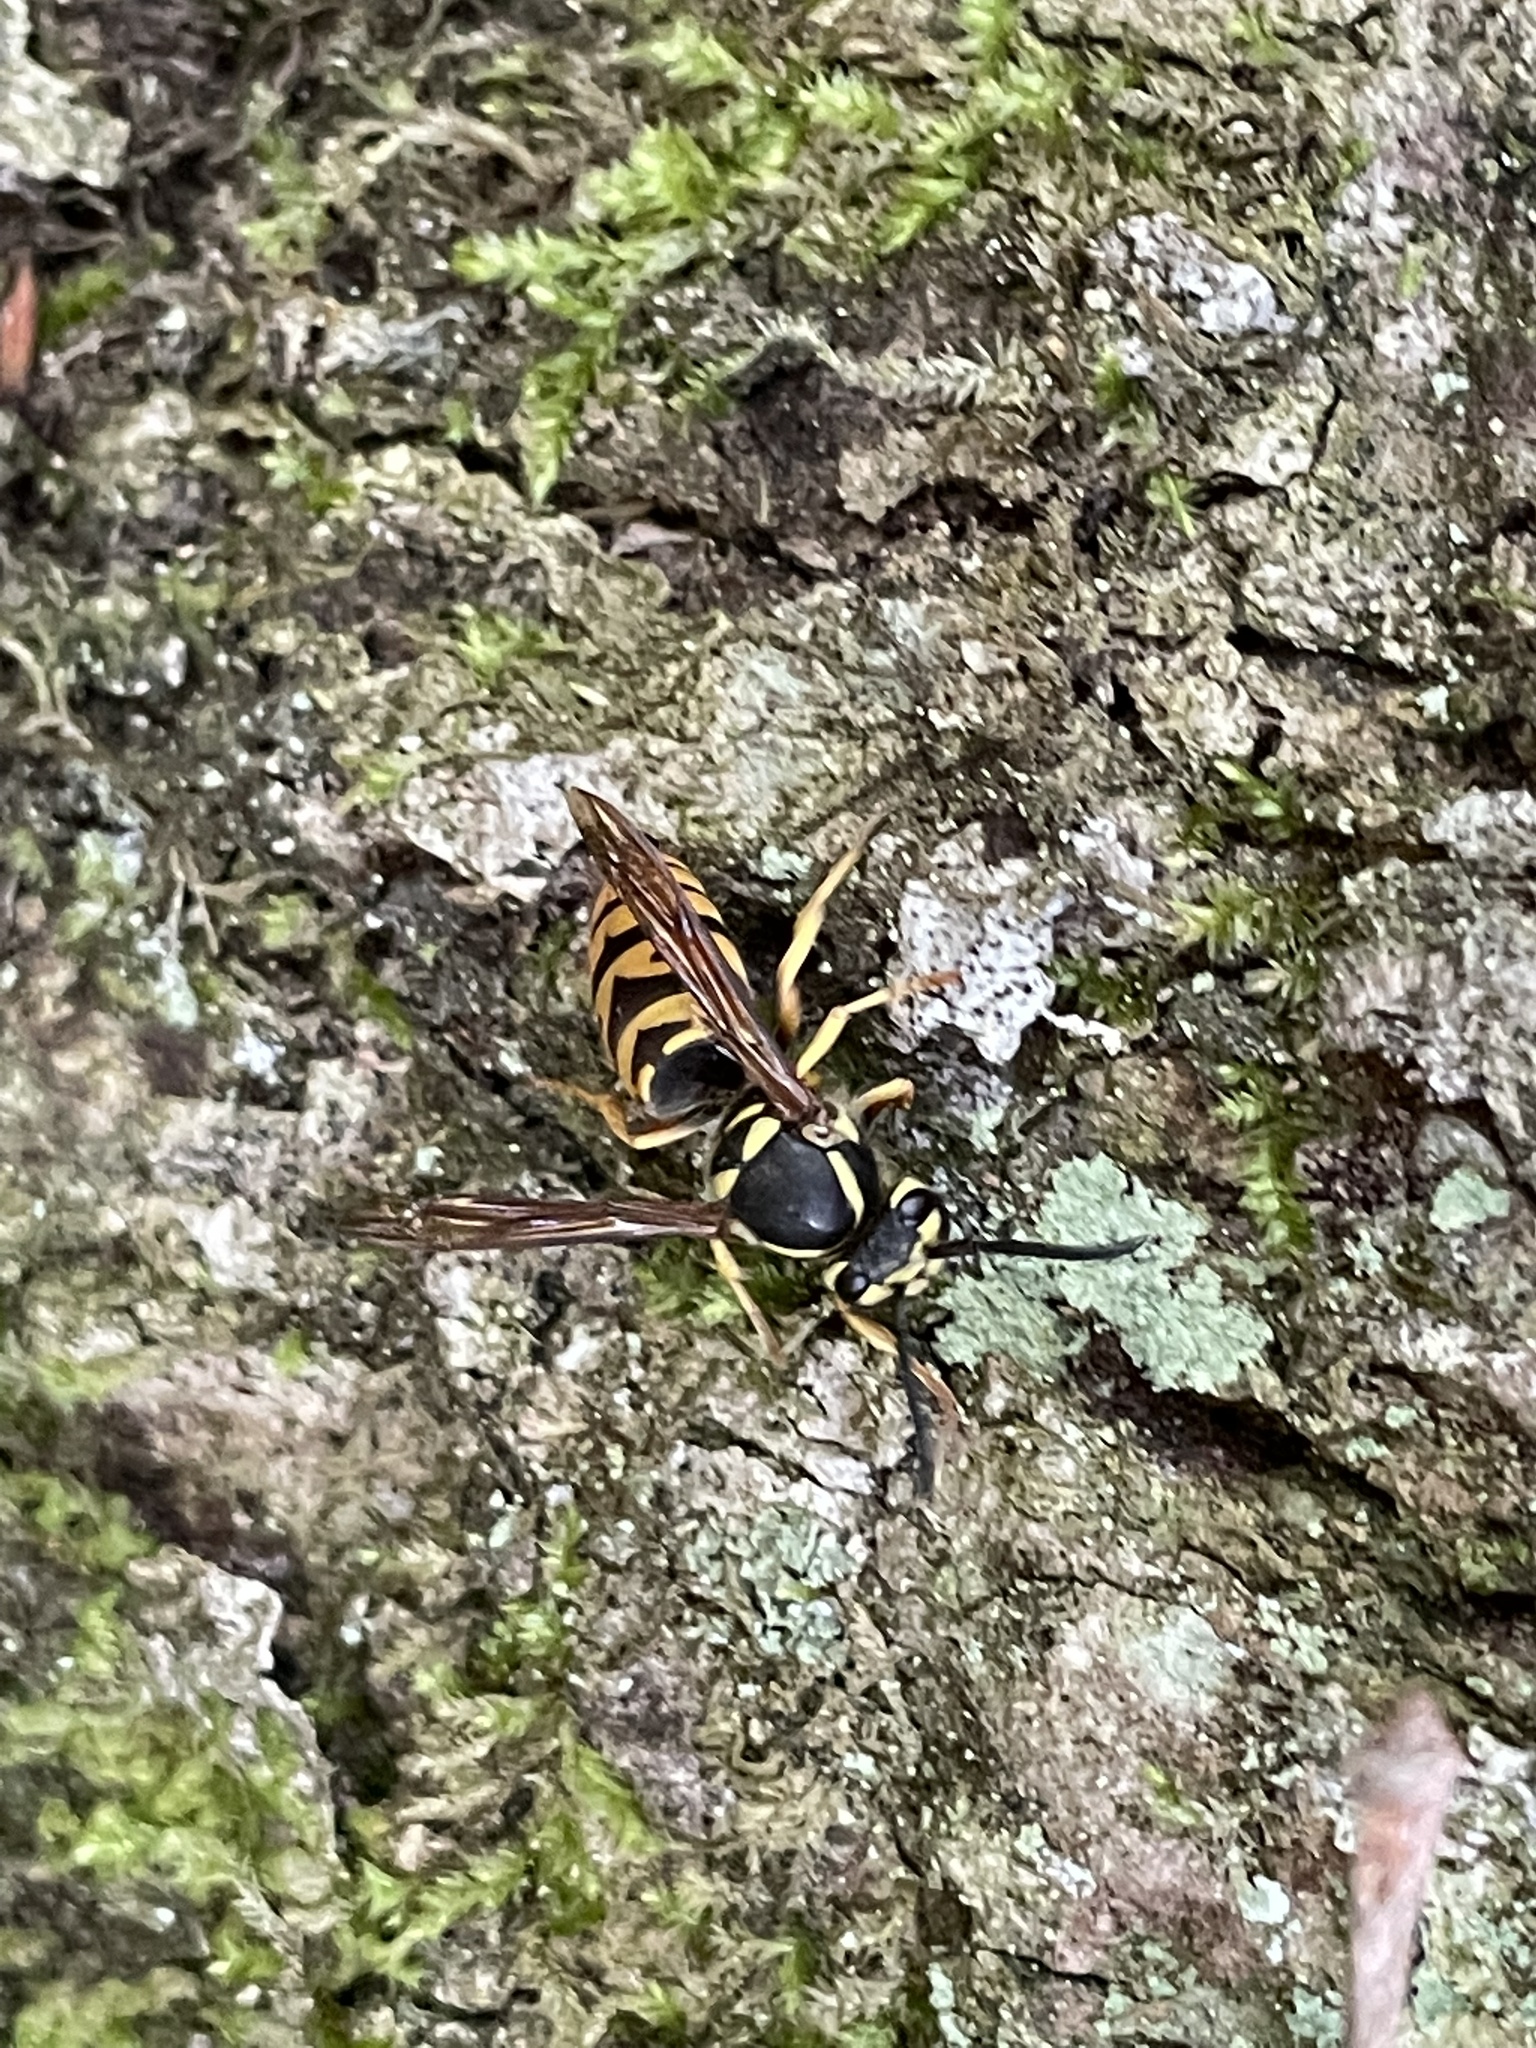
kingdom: Animalia
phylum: Arthropoda
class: Insecta
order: Hymenoptera
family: Vespidae
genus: Vespula
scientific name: Vespula maculifrons
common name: Eastern yellowjacket
